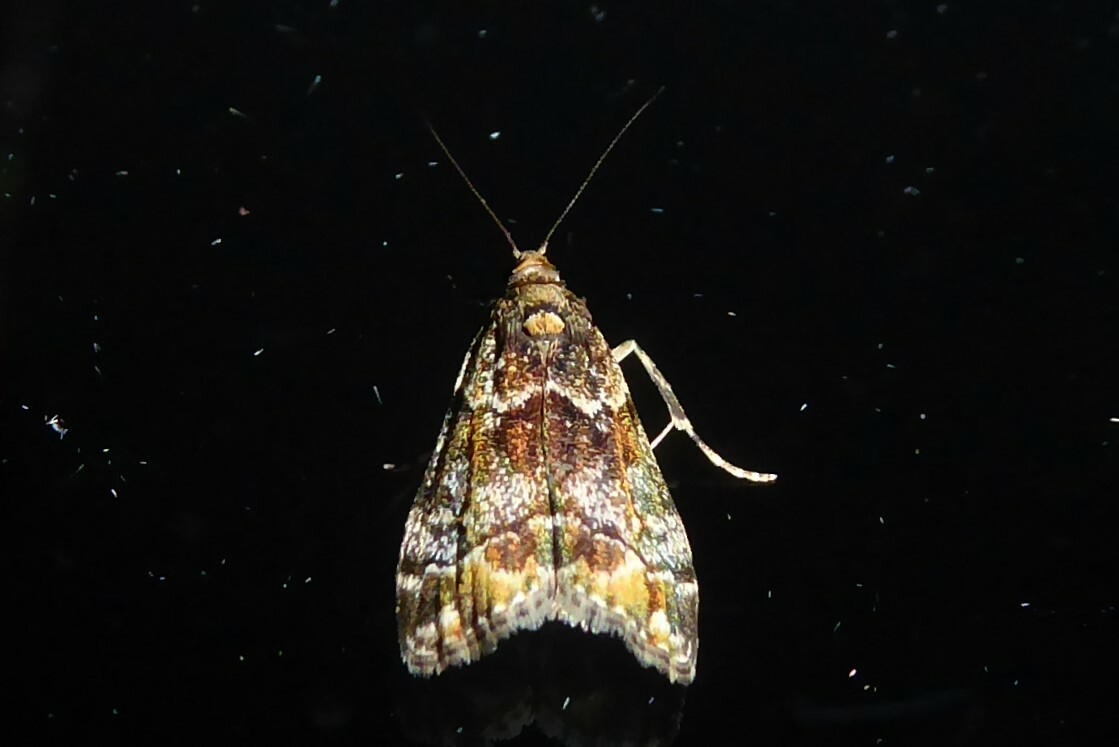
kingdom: Animalia
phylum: Arthropoda
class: Insecta
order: Lepidoptera
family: Crambidae
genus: Eudonia
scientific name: Eudonia minualis
